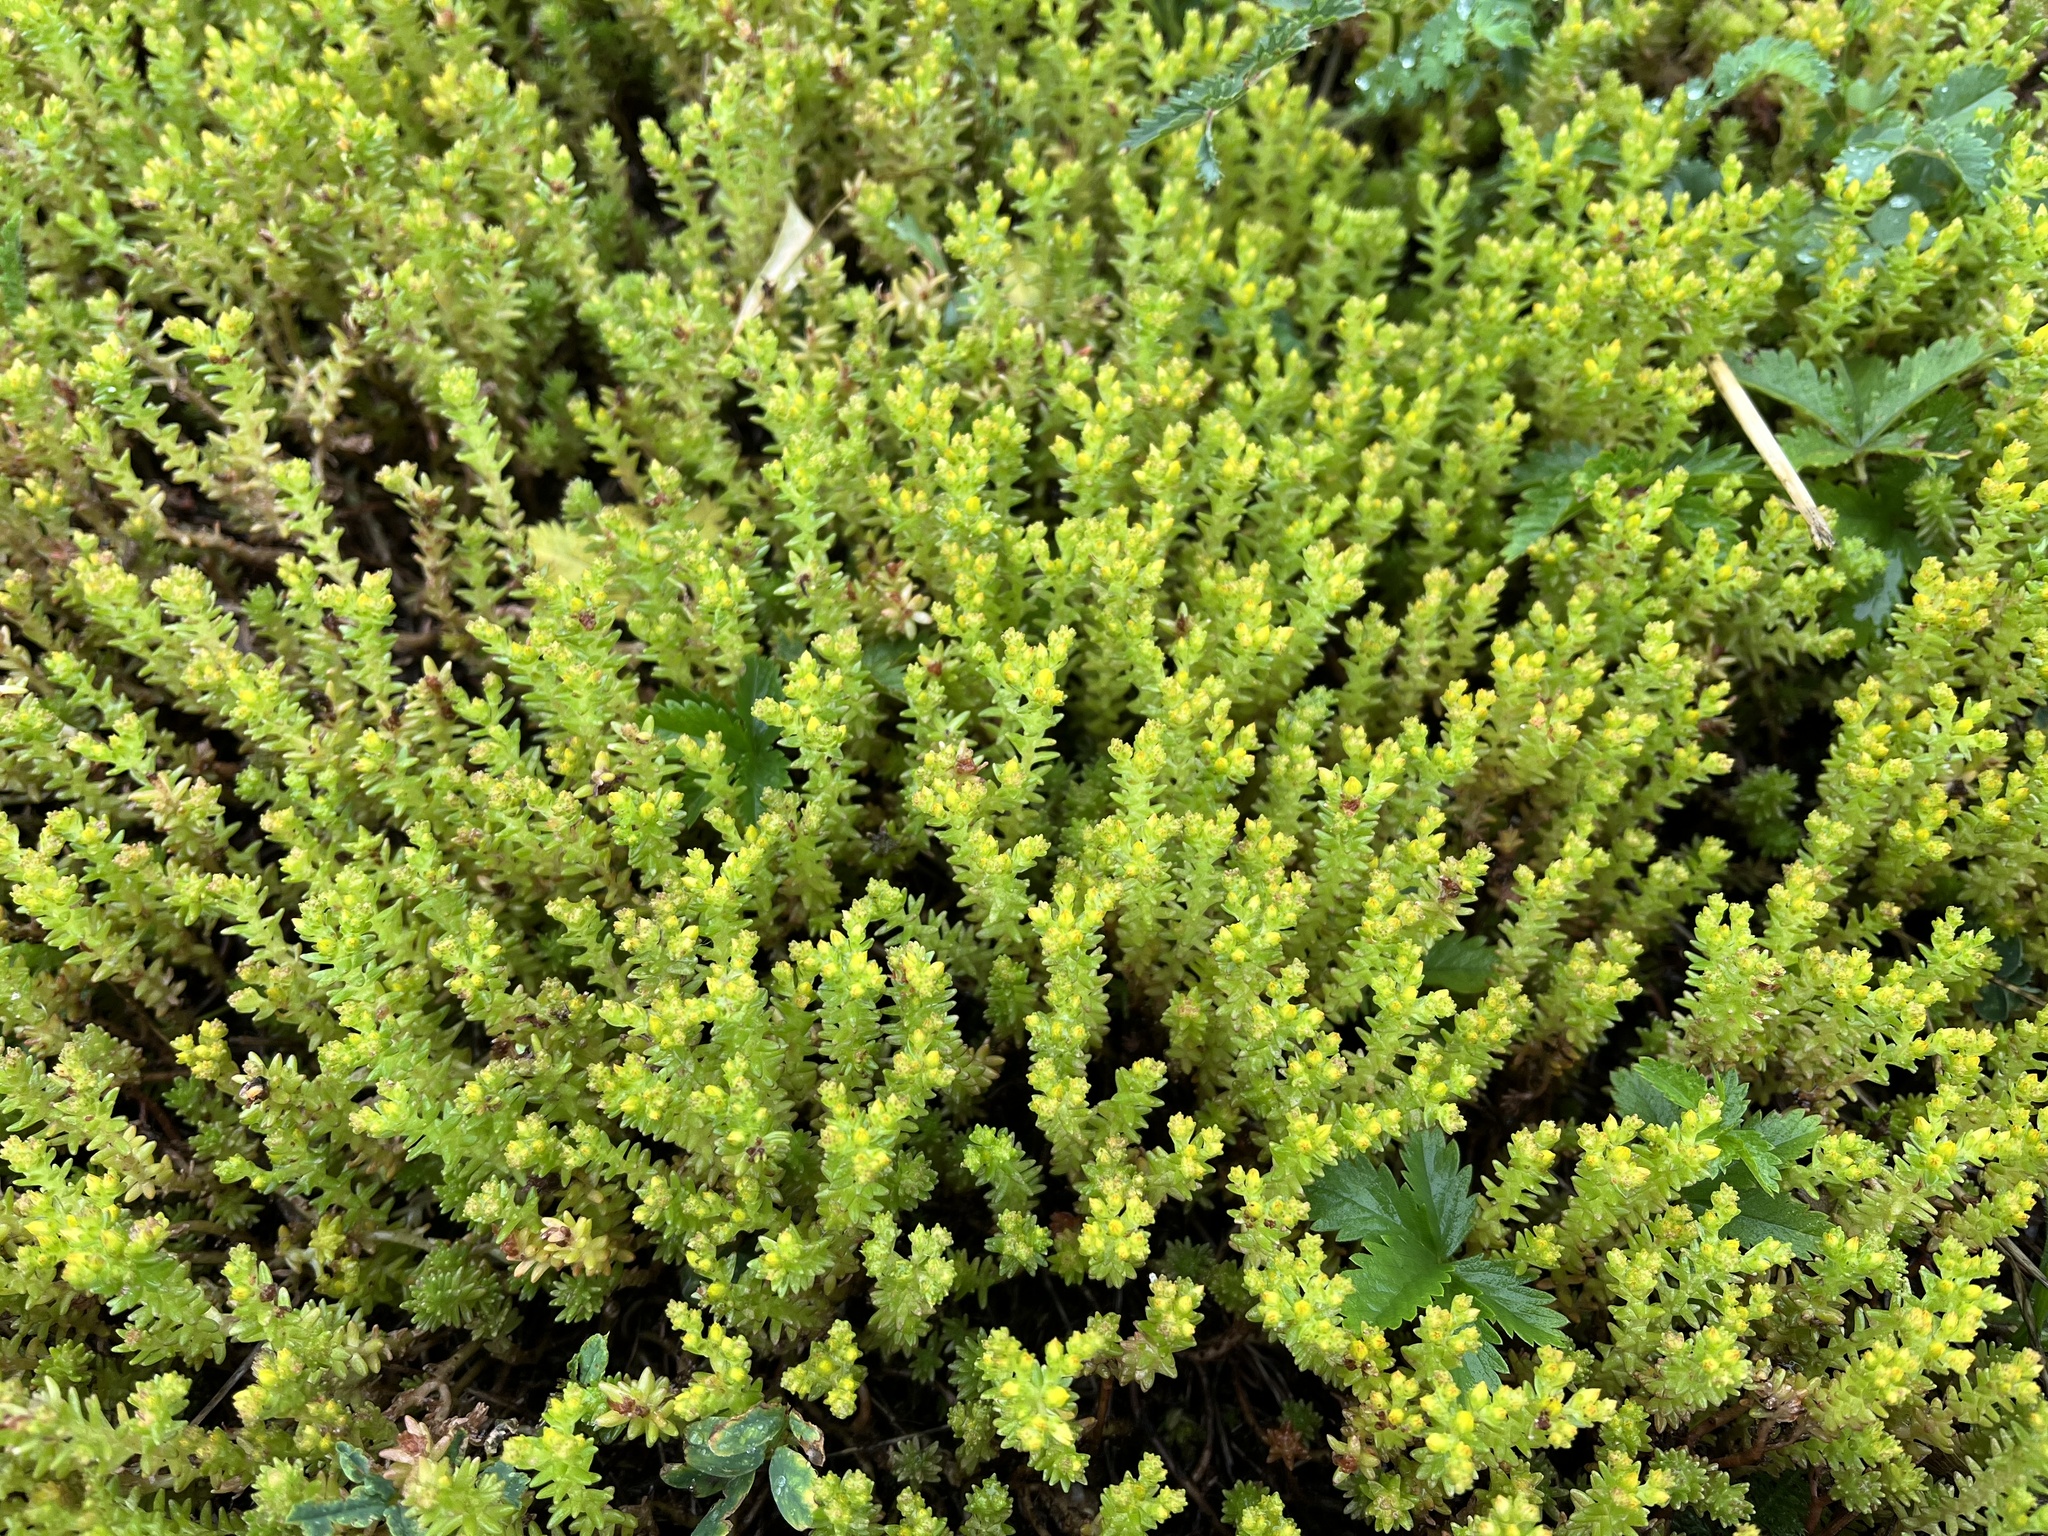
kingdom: Plantae
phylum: Tracheophyta
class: Magnoliopsida
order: Saxifragales
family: Crassulaceae
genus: Sedum
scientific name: Sedum sexangulare
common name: Tasteless stonecrop
